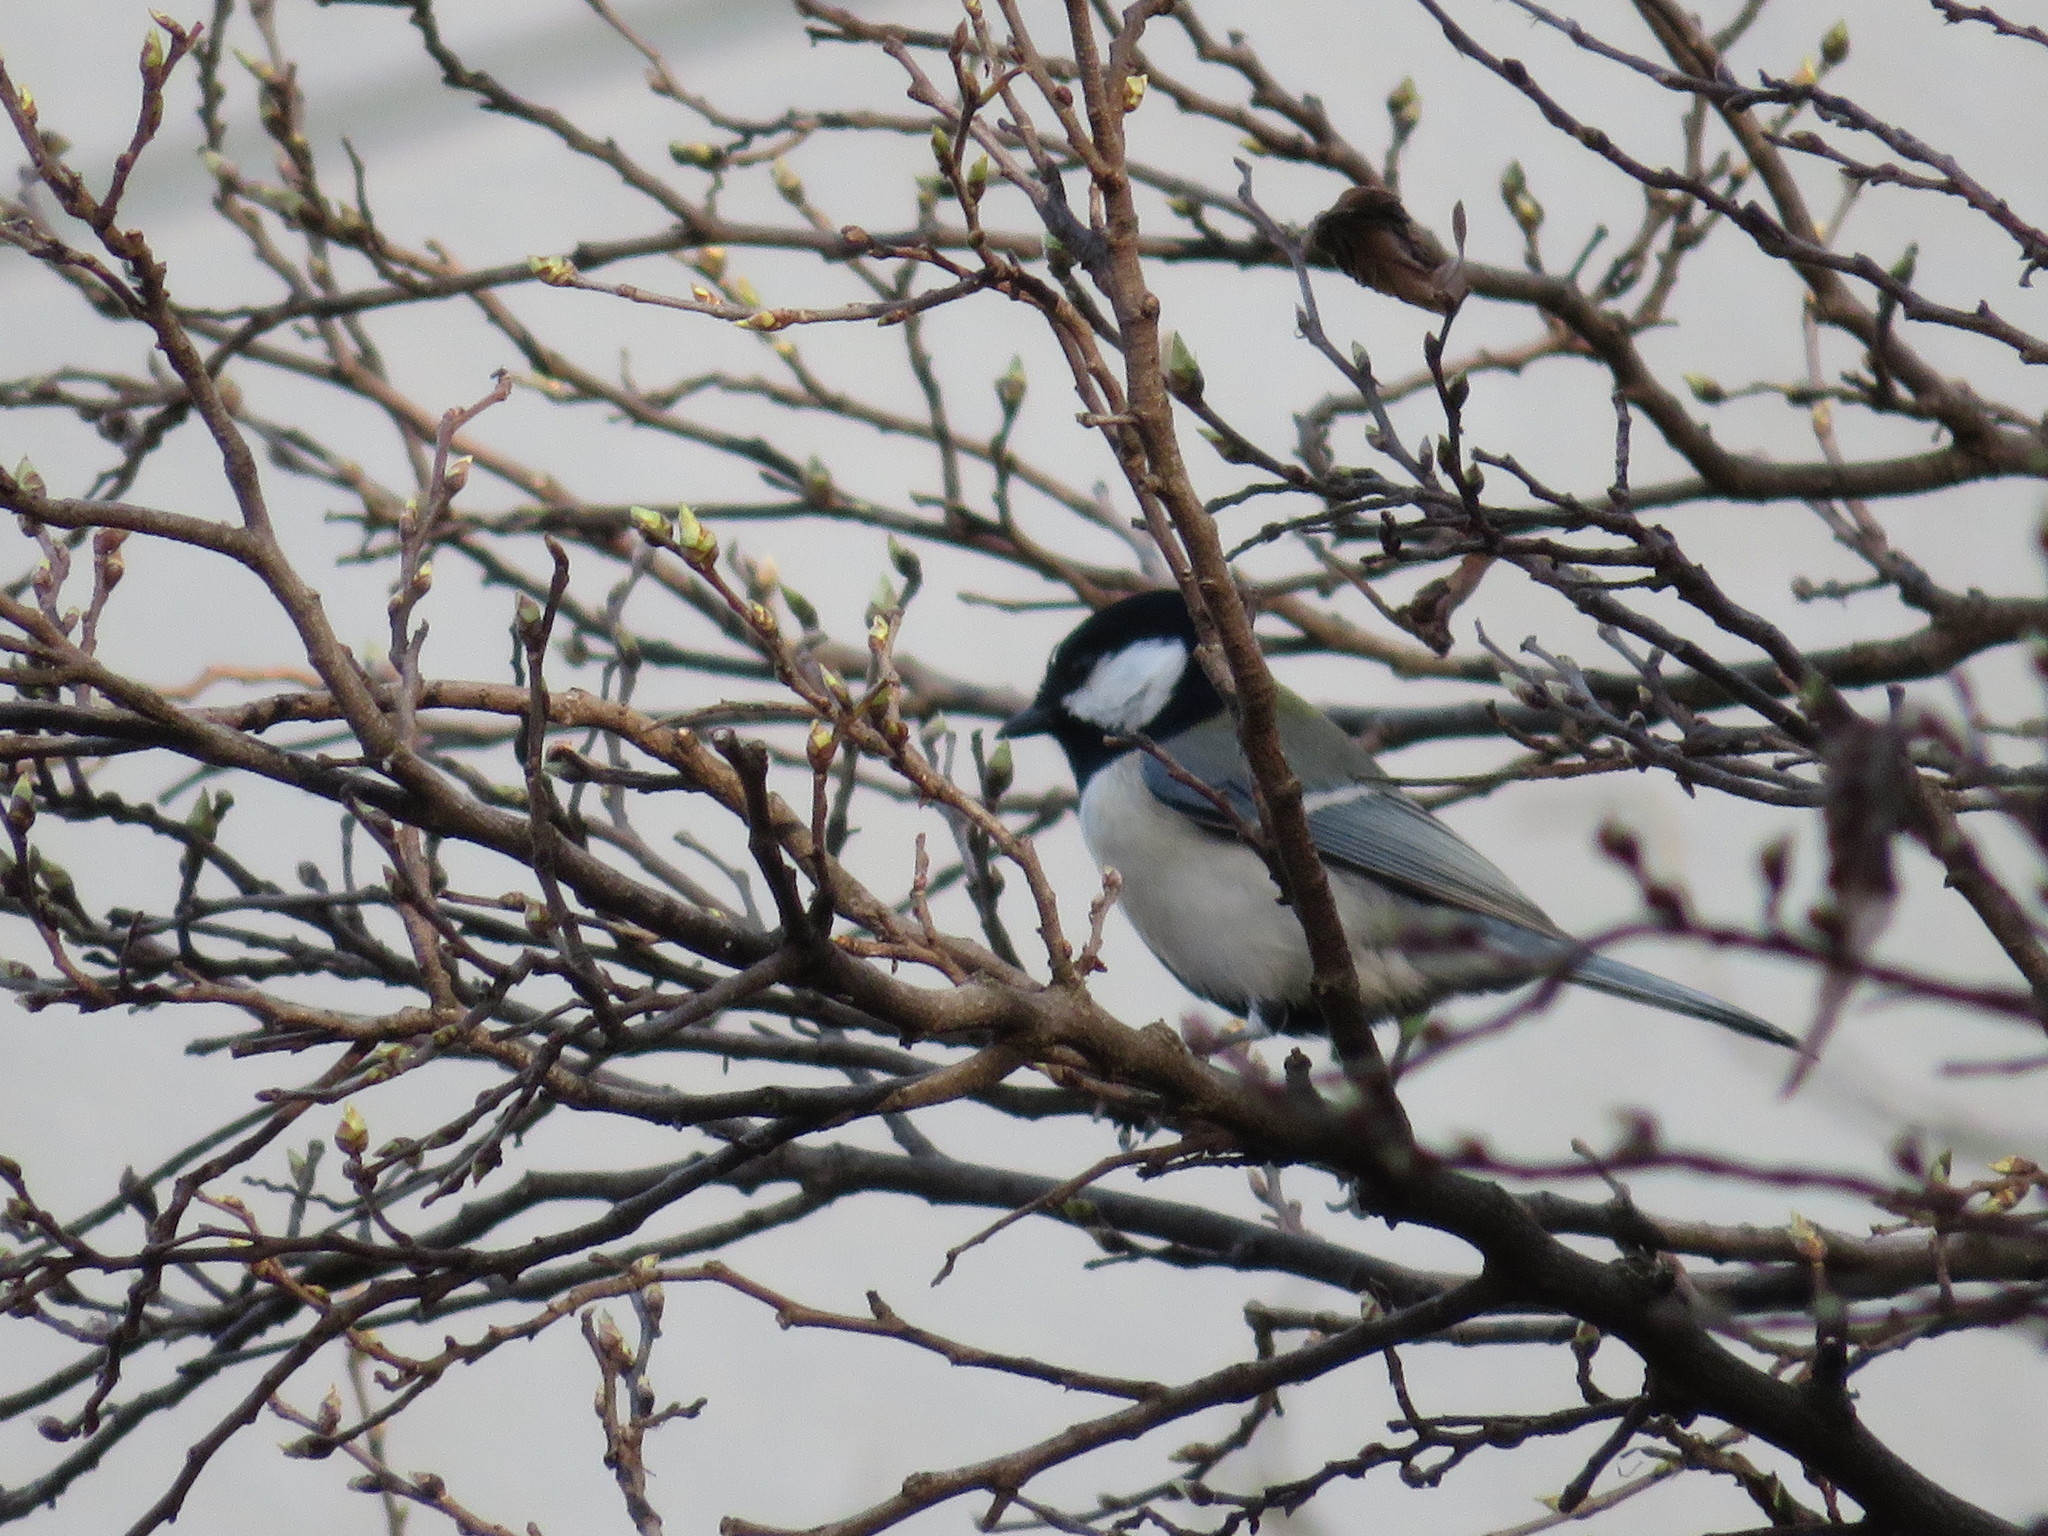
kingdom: Animalia
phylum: Chordata
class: Aves
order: Passeriformes
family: Paridae
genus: Parus
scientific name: Parus minor
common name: Japanese tit
